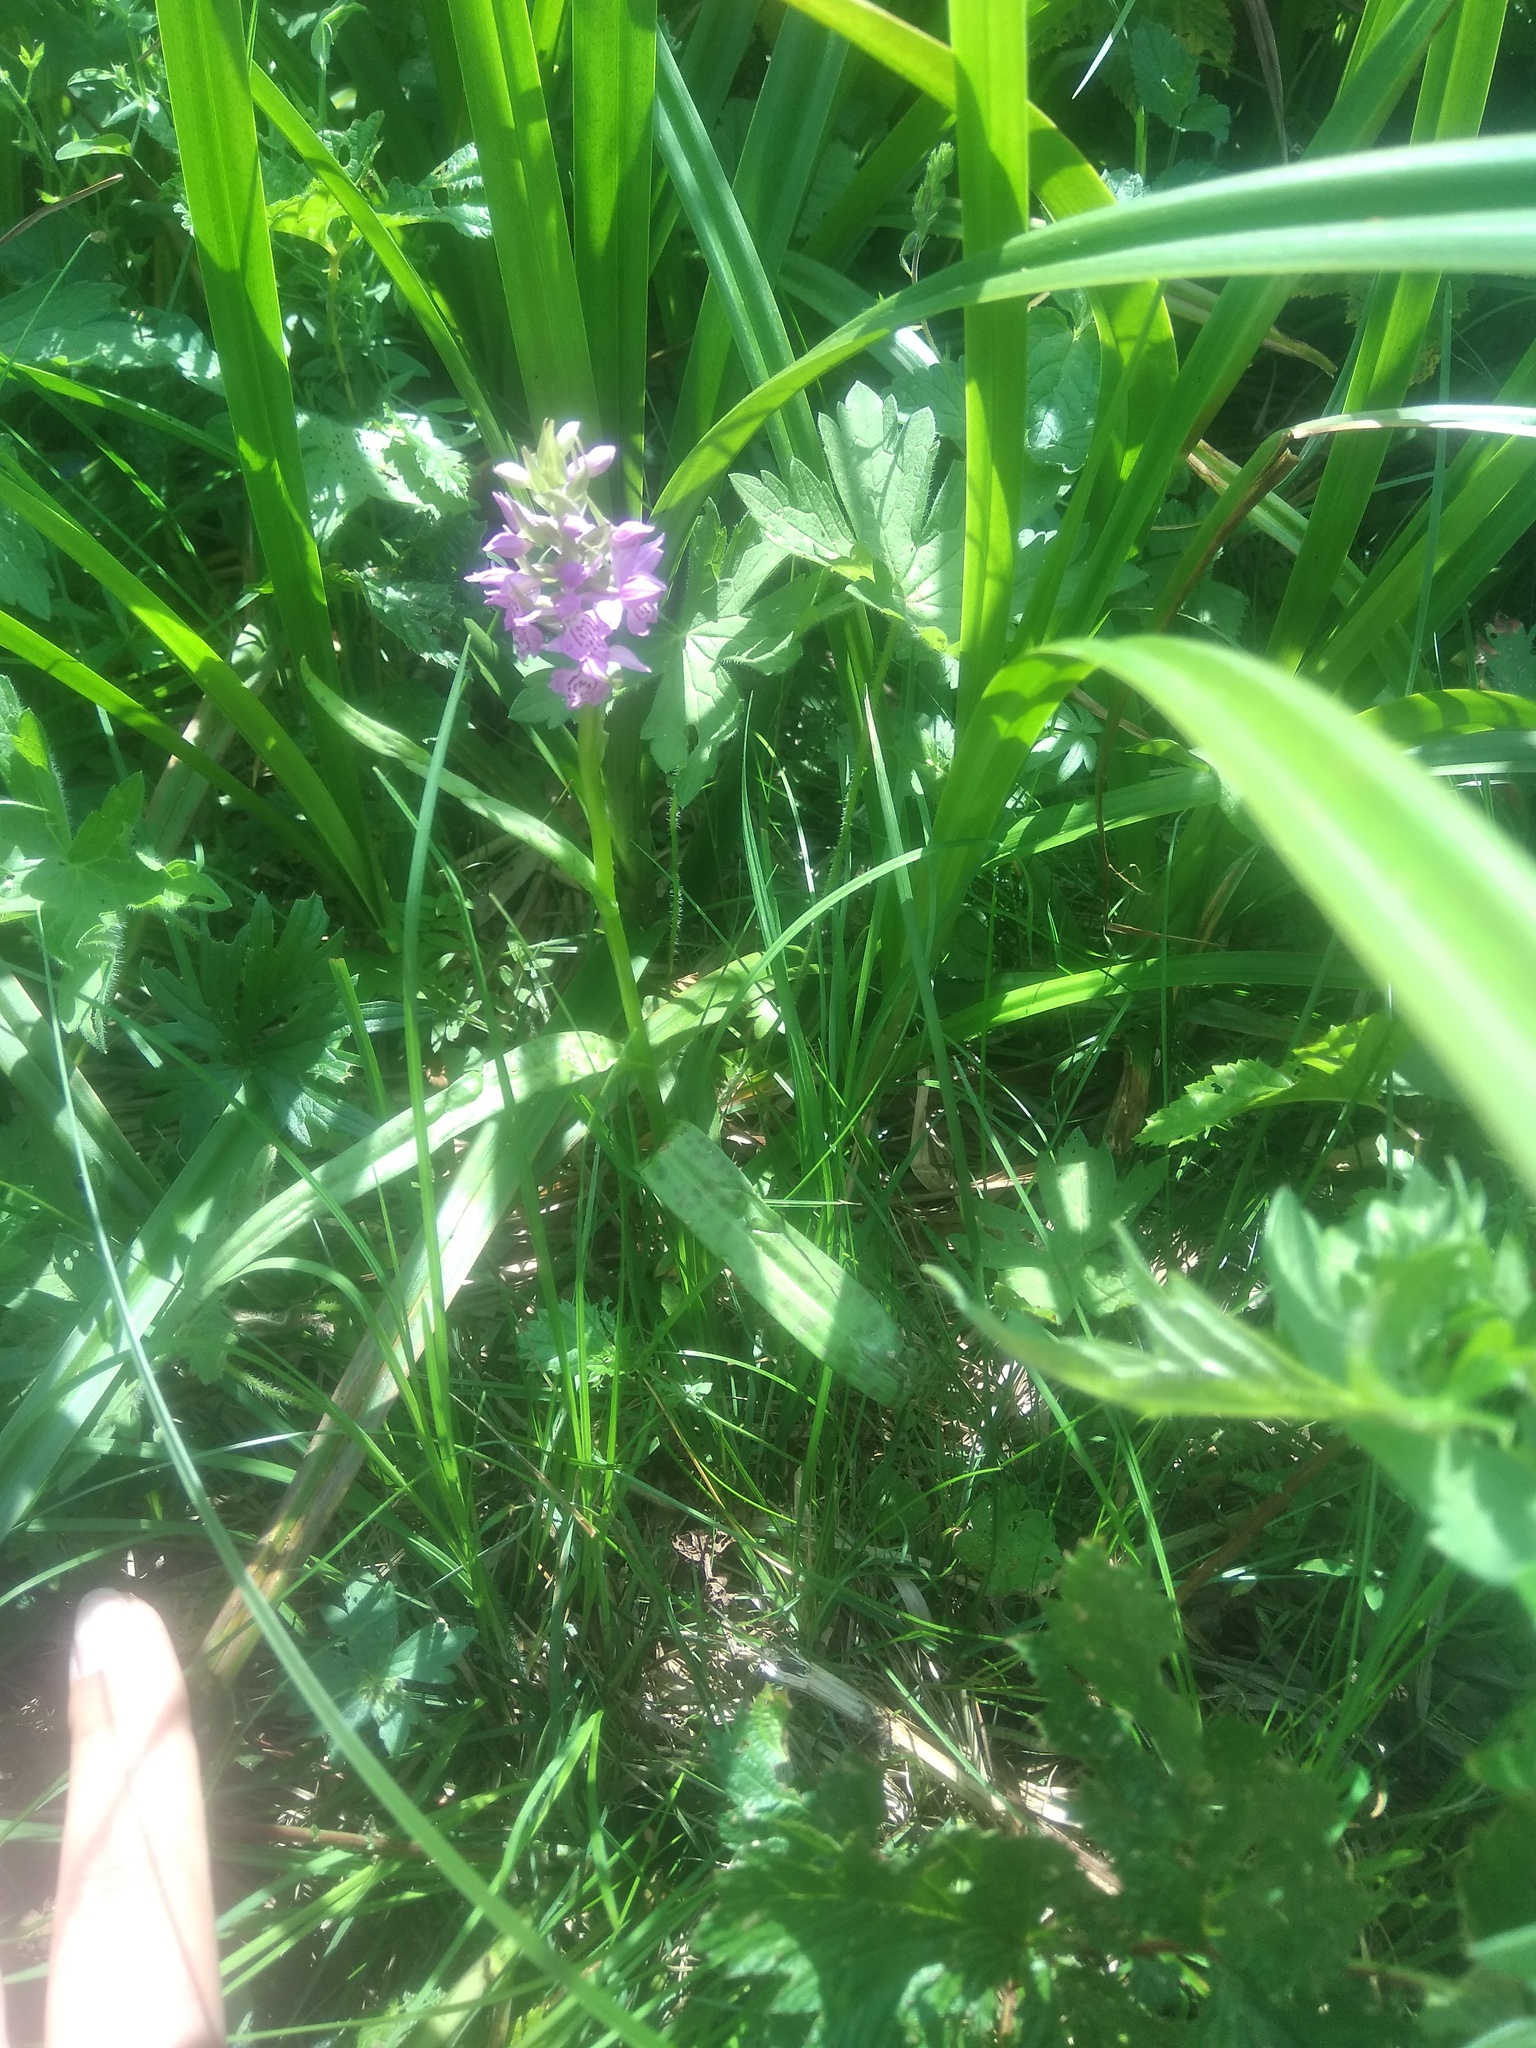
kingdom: Plantae
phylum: Tracheophyta
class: Liliopsida
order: Asparagales
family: Orchidaceae
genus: Dactylorhiza
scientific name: Dactylorhiza majalis
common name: Marsh orchid
